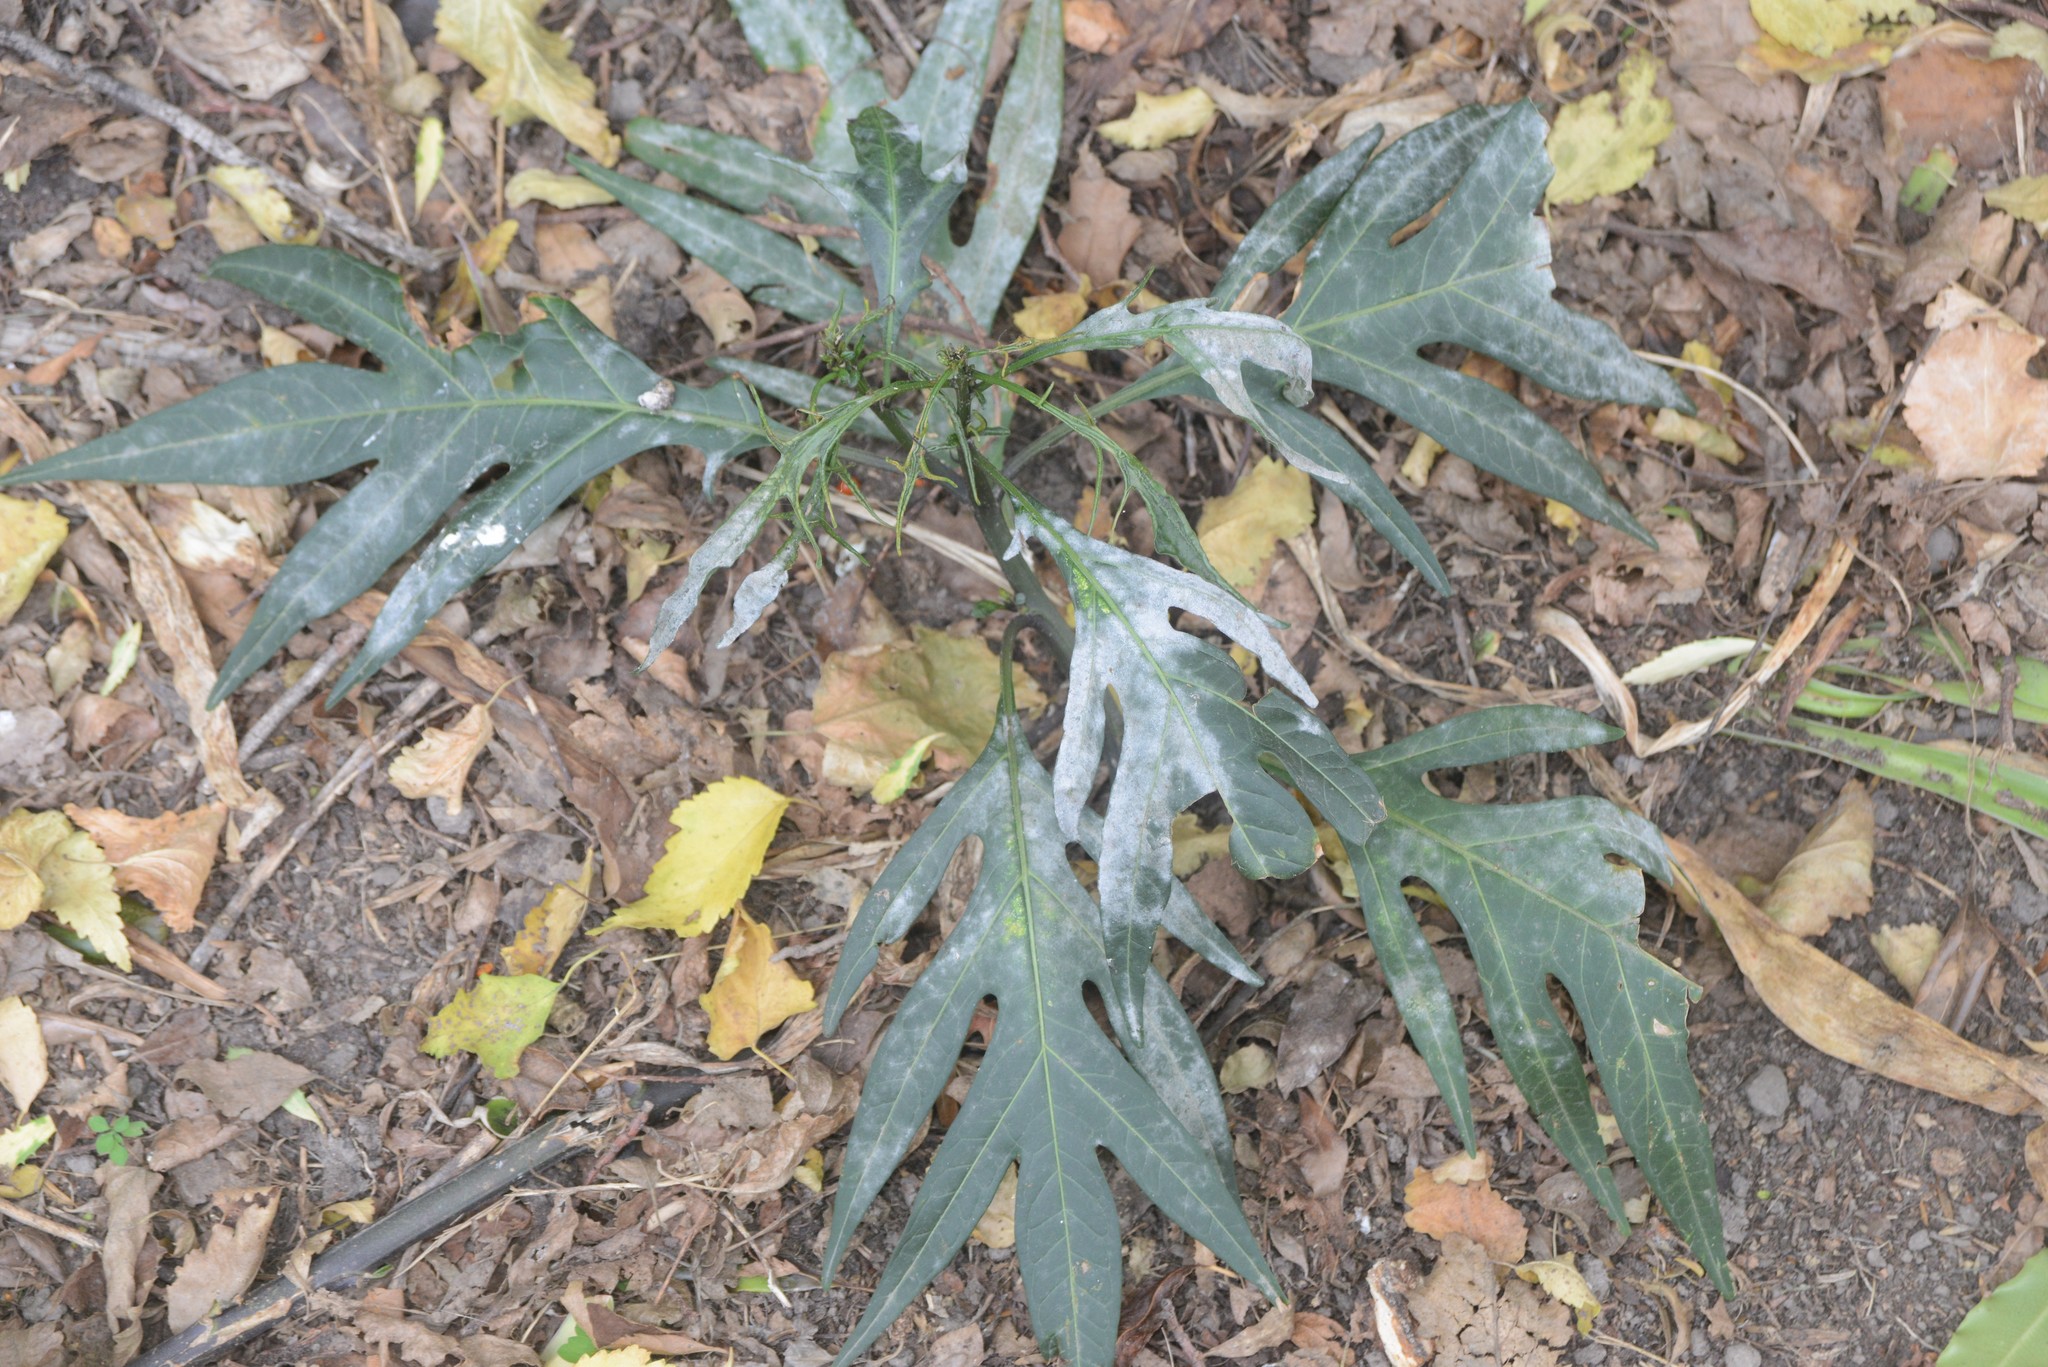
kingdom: Fungi
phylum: Ascomycota
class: Leotiomycetes
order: Helotiales
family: Erysiphaceae
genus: Golovinomyces
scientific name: Golovinomyces longipes
